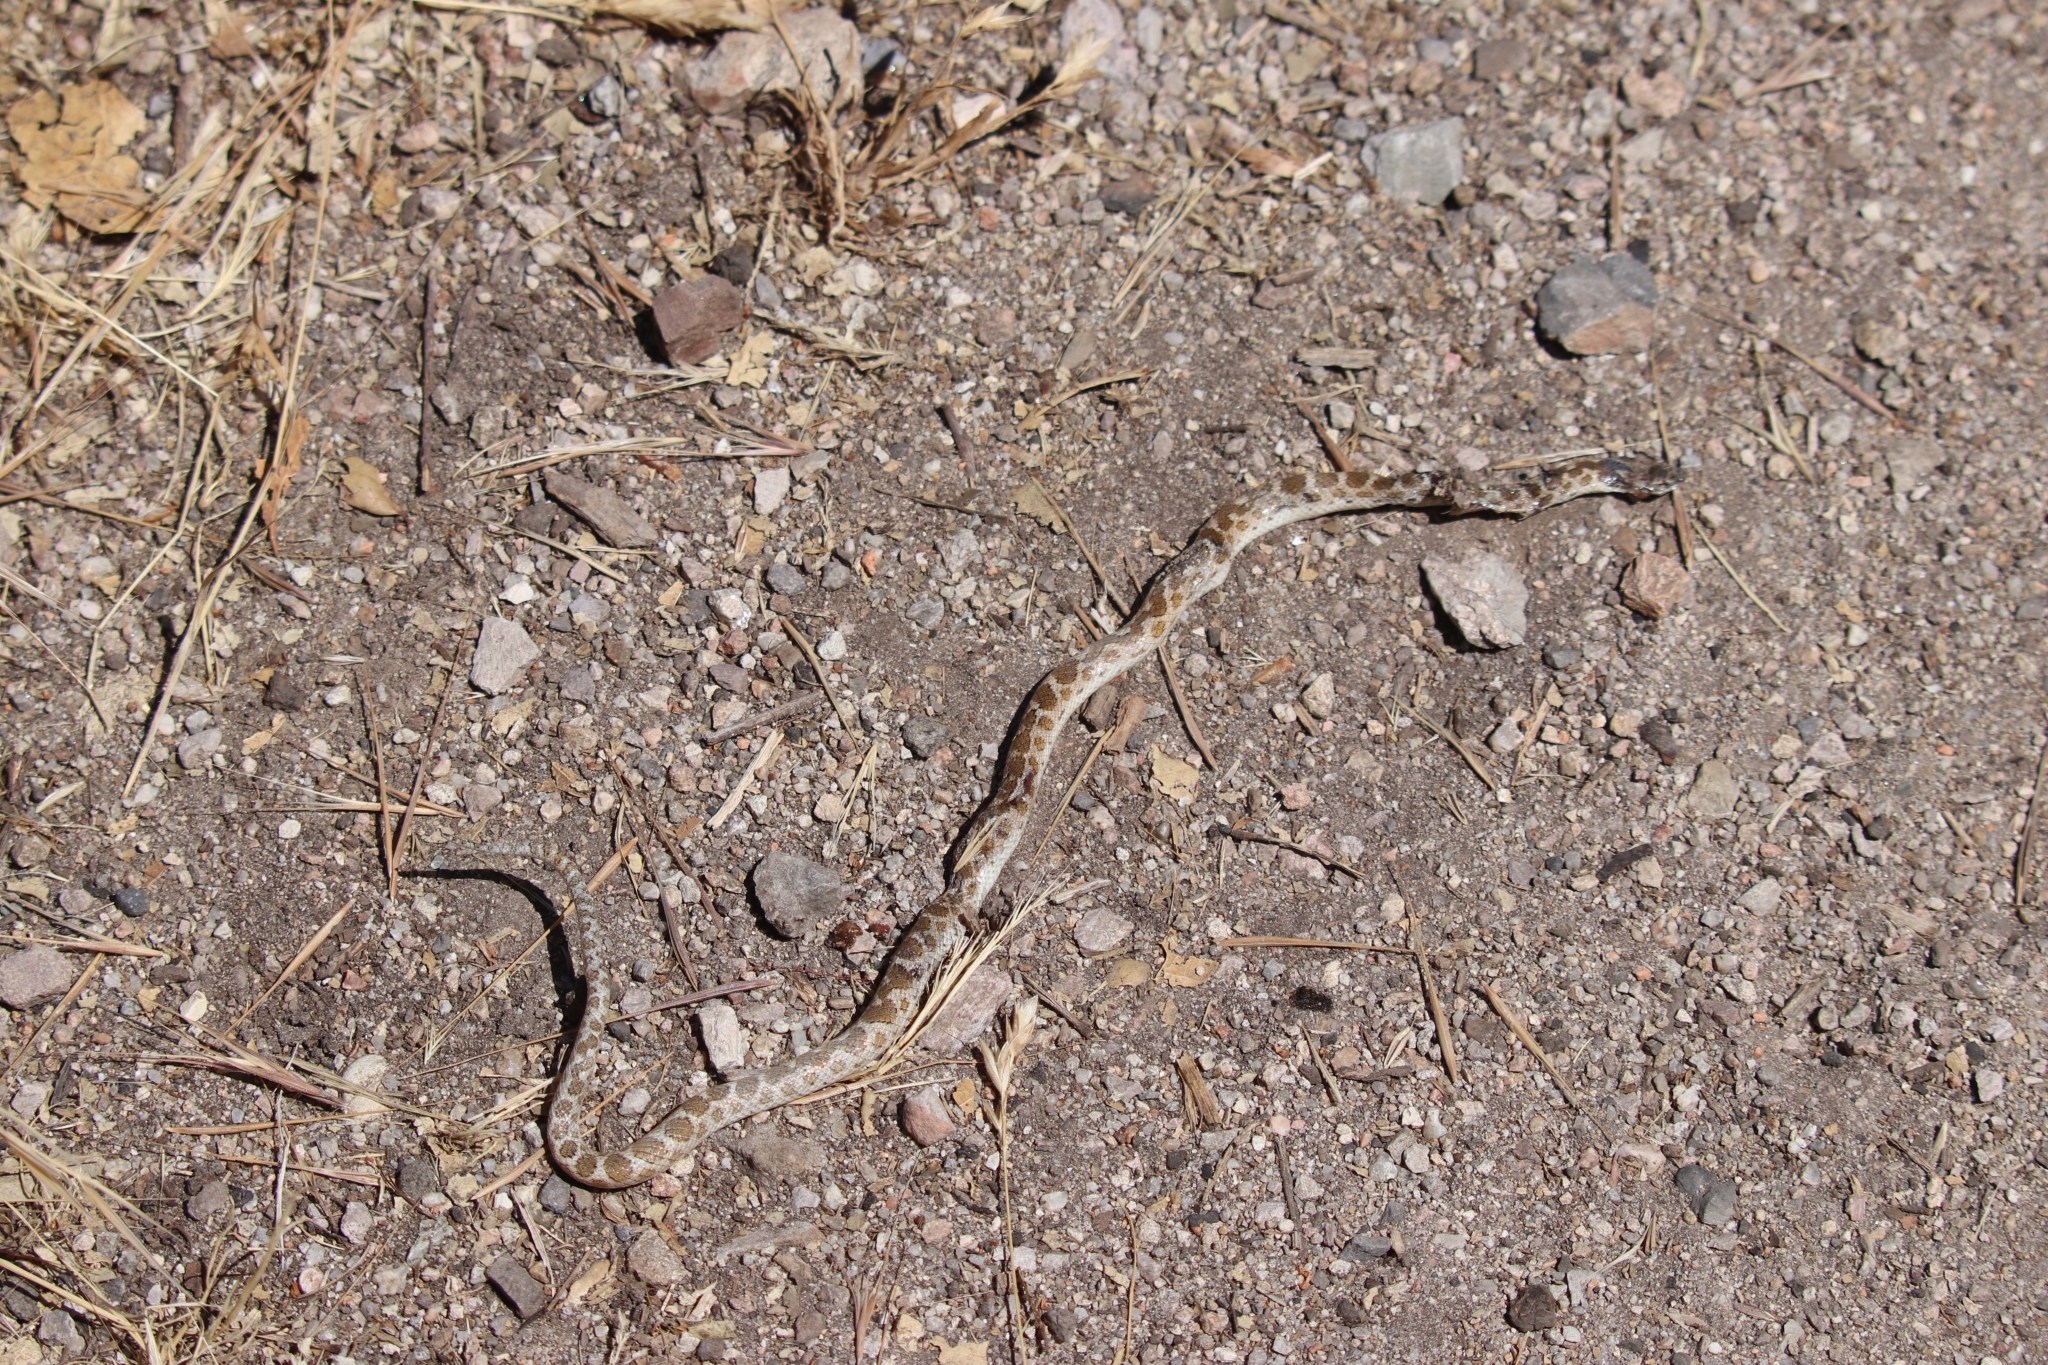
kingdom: Animalia
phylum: Chordata
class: Squamata
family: Colubridae
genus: Hypsiglena
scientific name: Hypsiglena ochrorhynchus
